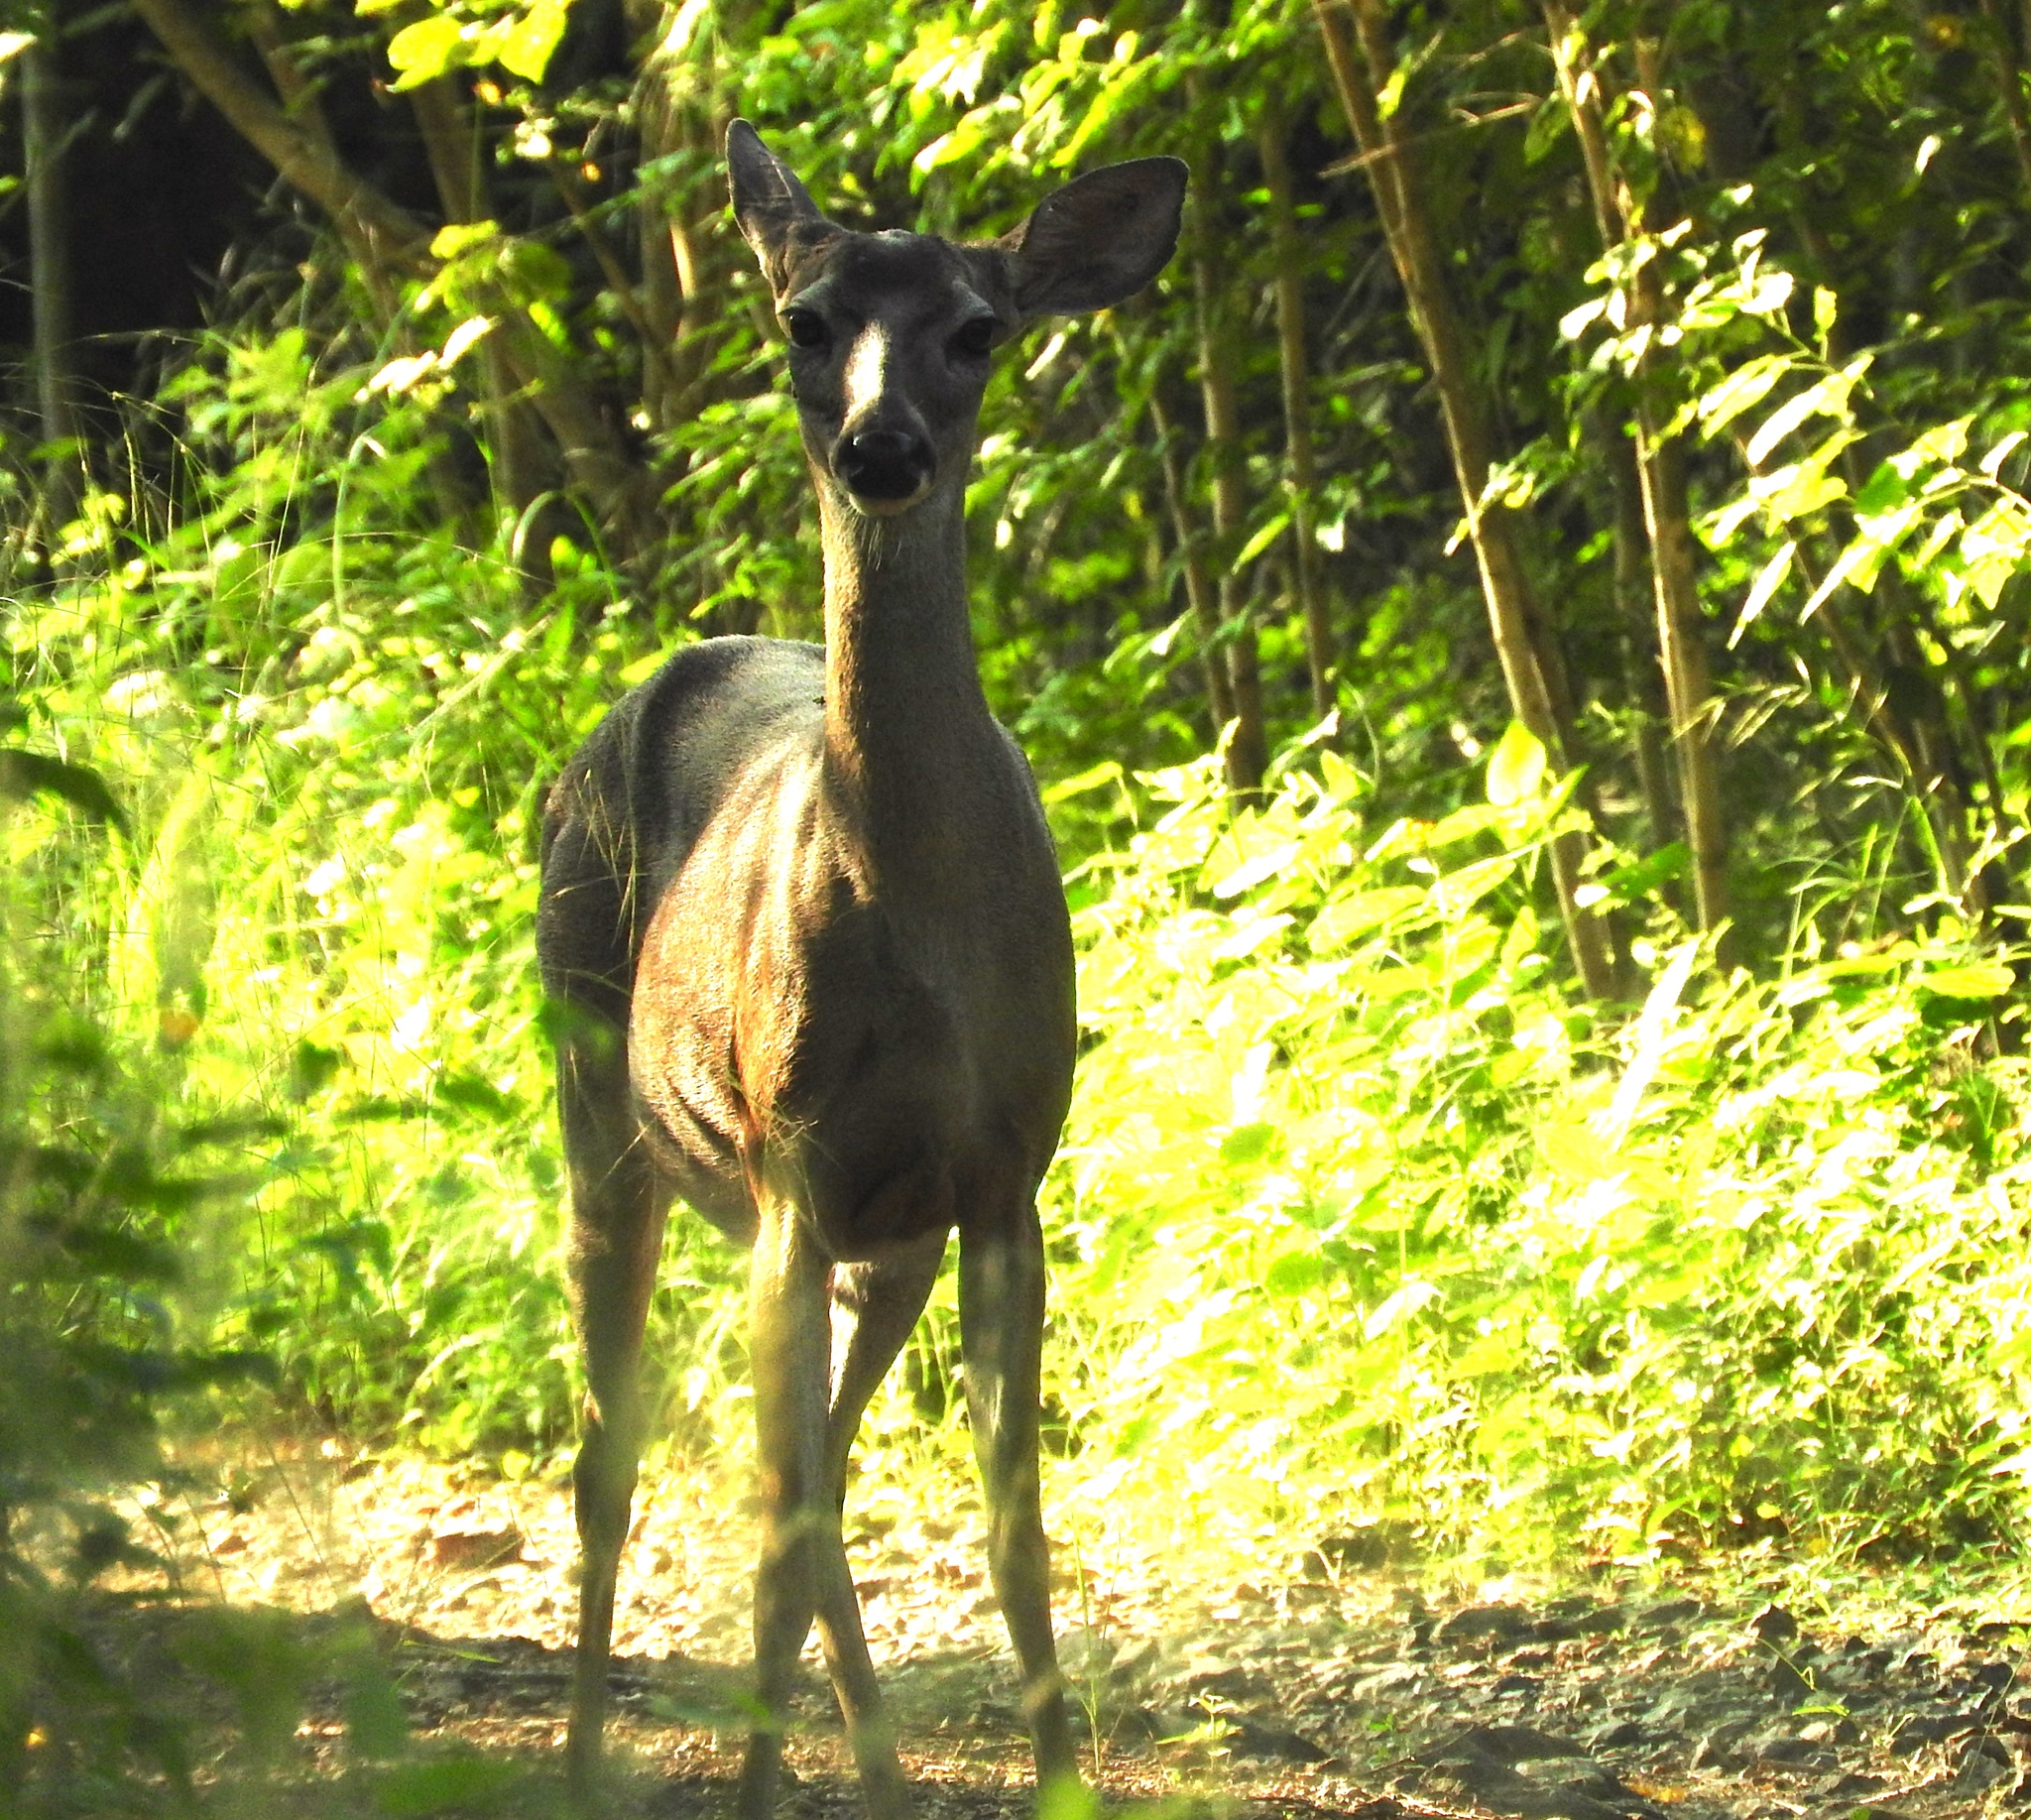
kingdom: Animalia
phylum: Chordata
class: Mammalia
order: Artiodactyla
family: Cervidae
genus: Odocoileus
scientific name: Odocoileus virginianus
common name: White-tailed deer
